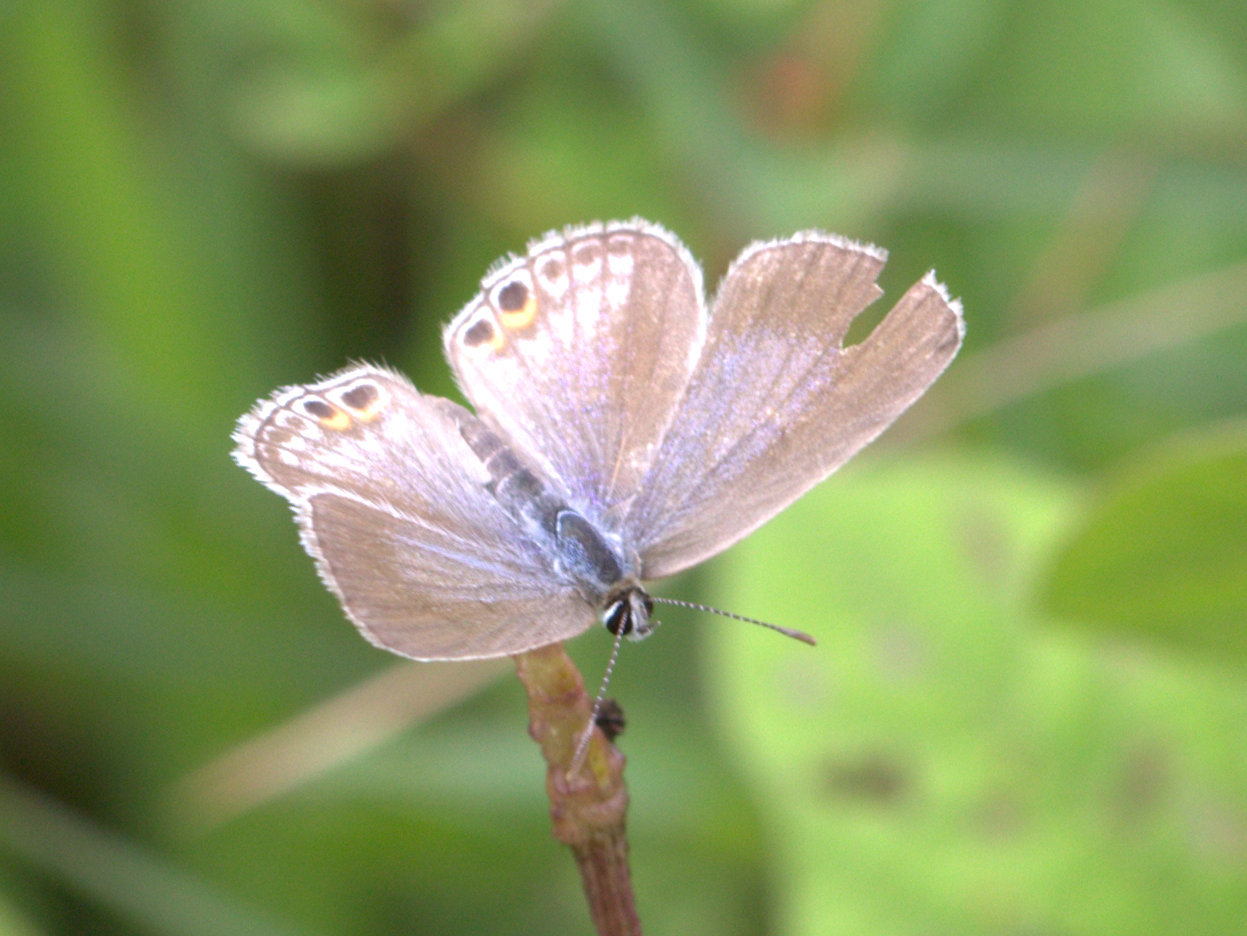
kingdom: Animalia
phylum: Arthropoda
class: Insecta
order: Lepidoptera
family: Lycaenidae
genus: Euchrysops
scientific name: Euchrysops cnejus
